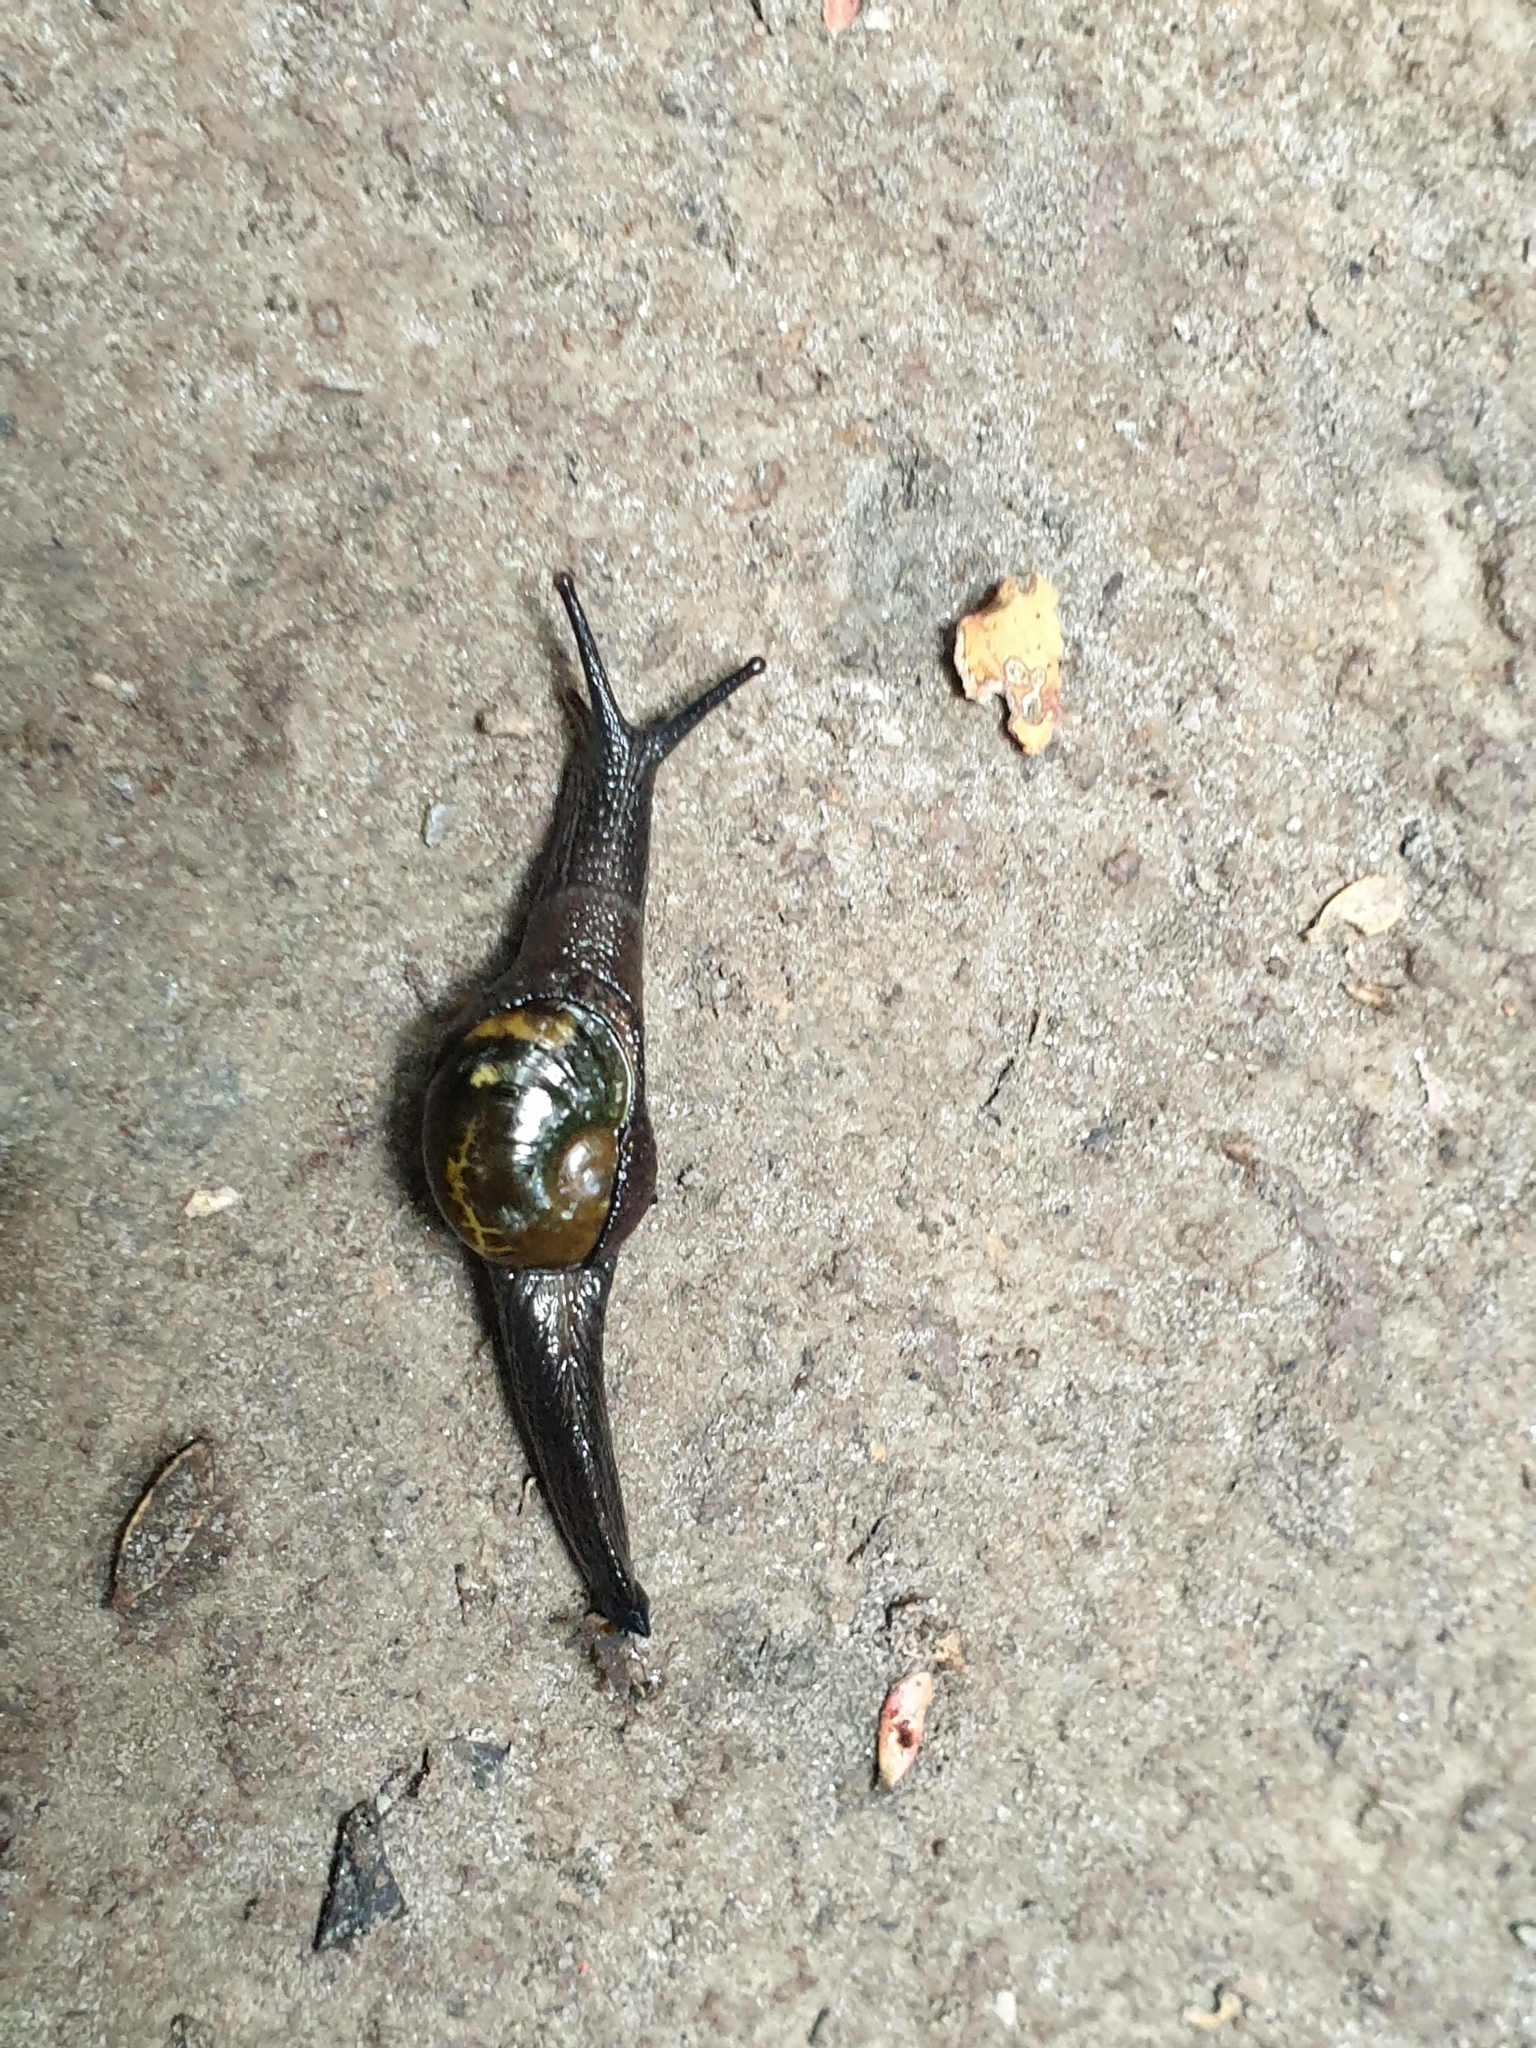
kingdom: Animalia
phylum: Mollusca
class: Gastropoda
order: Stylommatophora
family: Helicarionidae
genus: Helicarion
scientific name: Helicarion cuvieri
